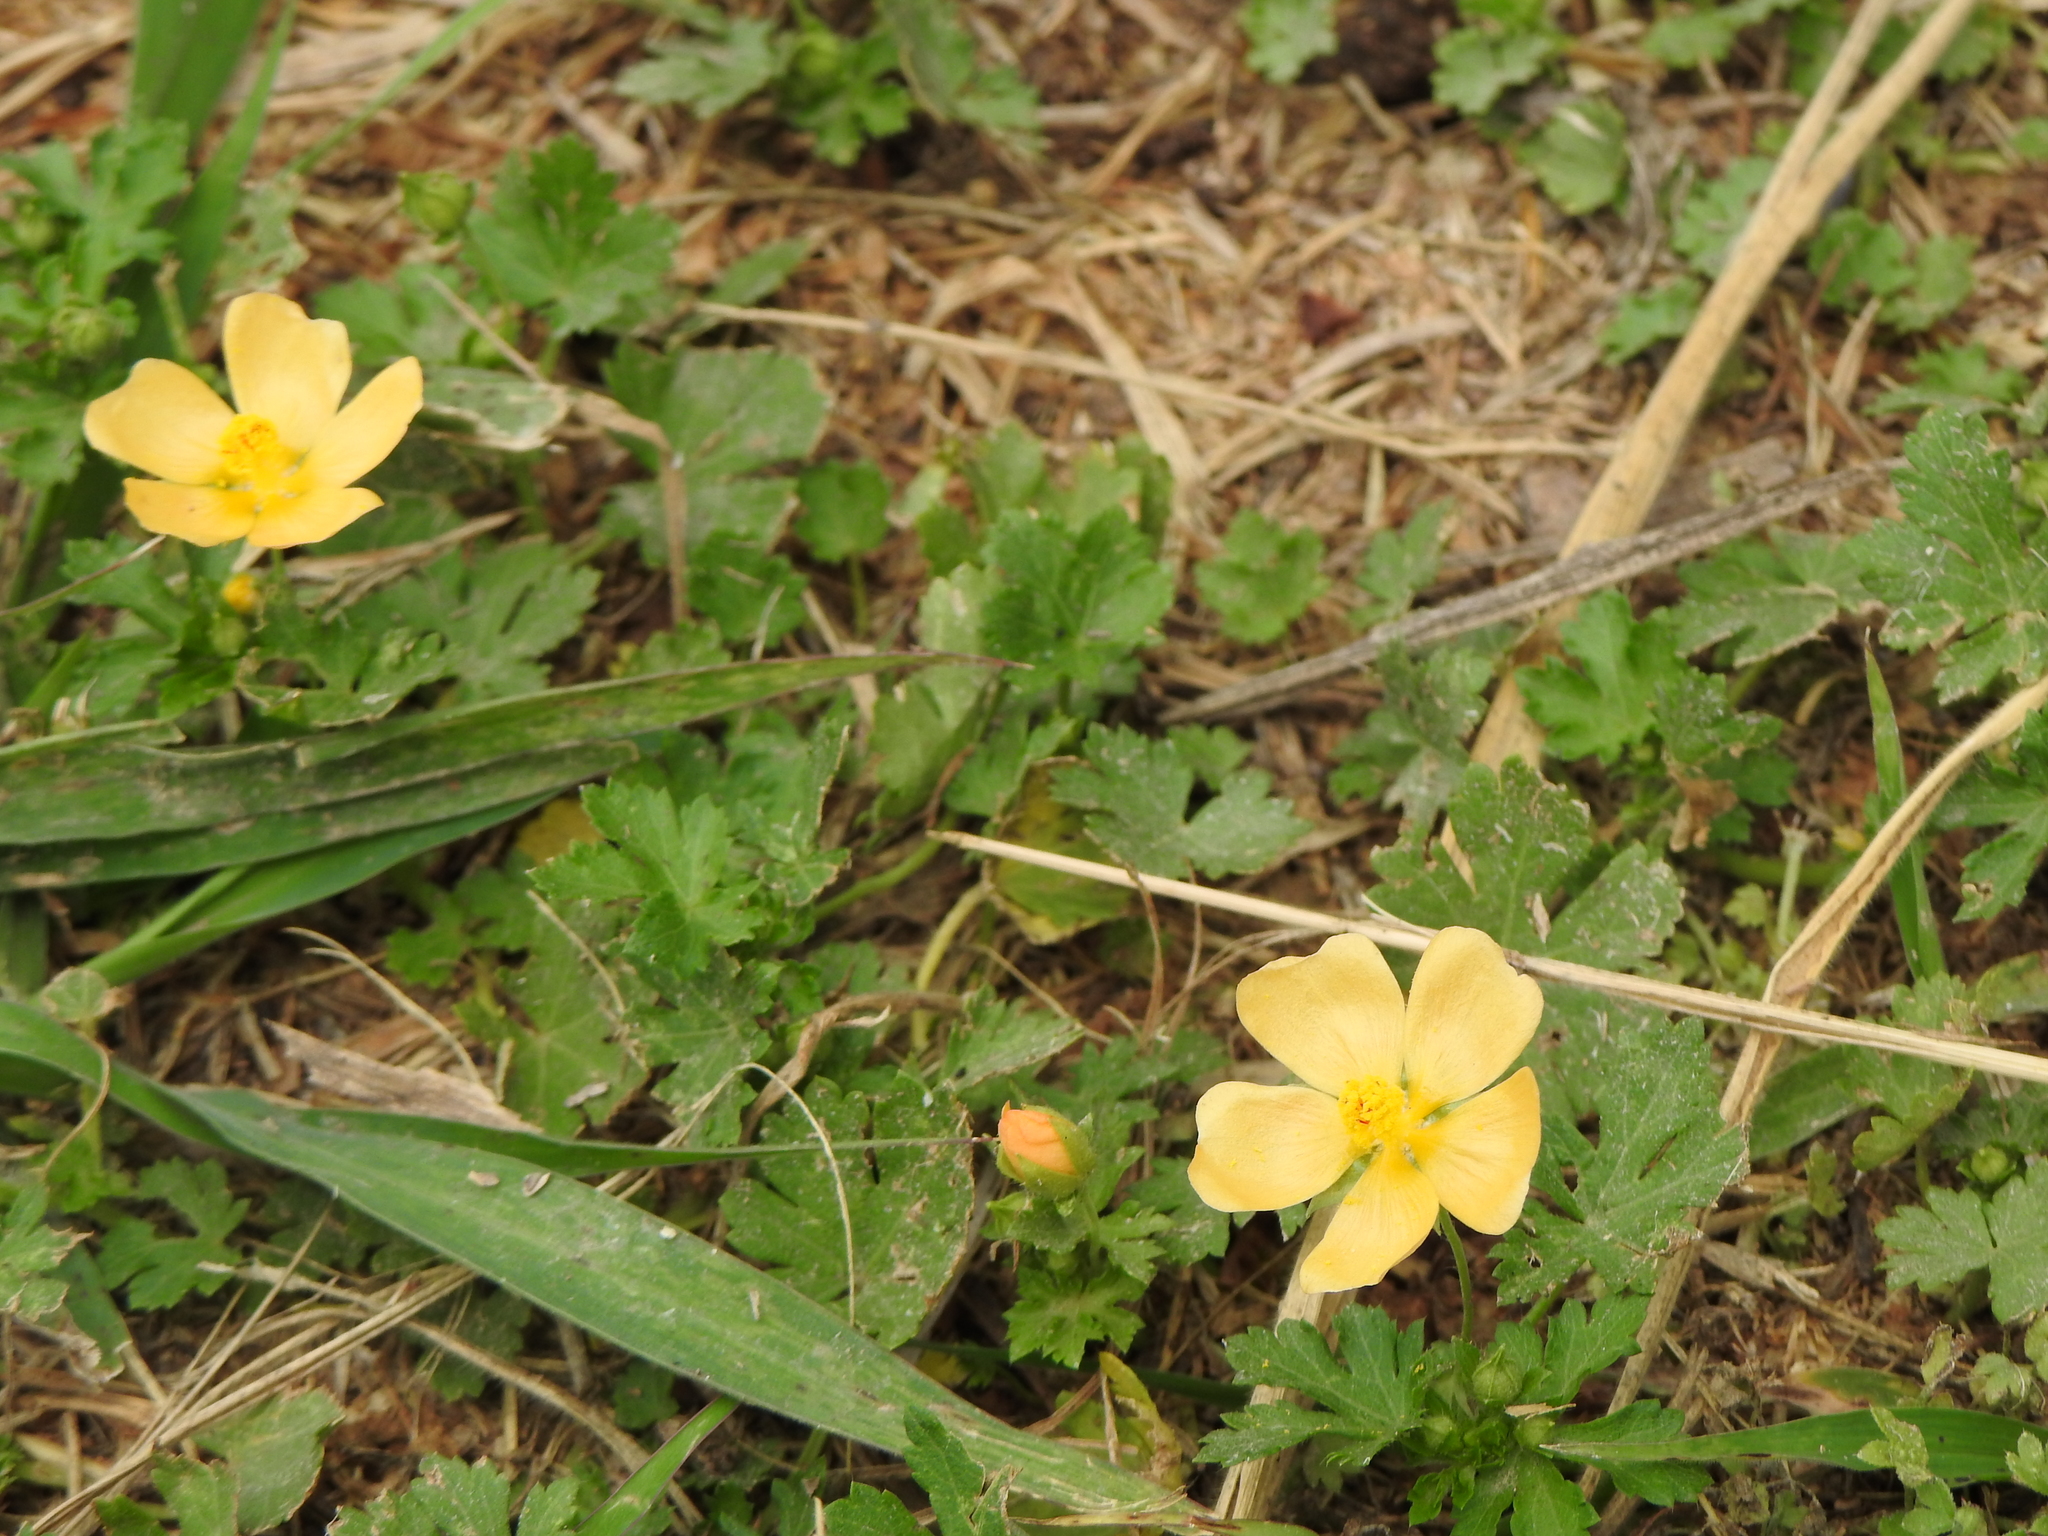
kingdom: Plantae
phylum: Tracheophyta
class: Magnoliopsida
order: Malvales
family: Malvaceae
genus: Modiolastrum
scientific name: Modiolastrum malvifolium
